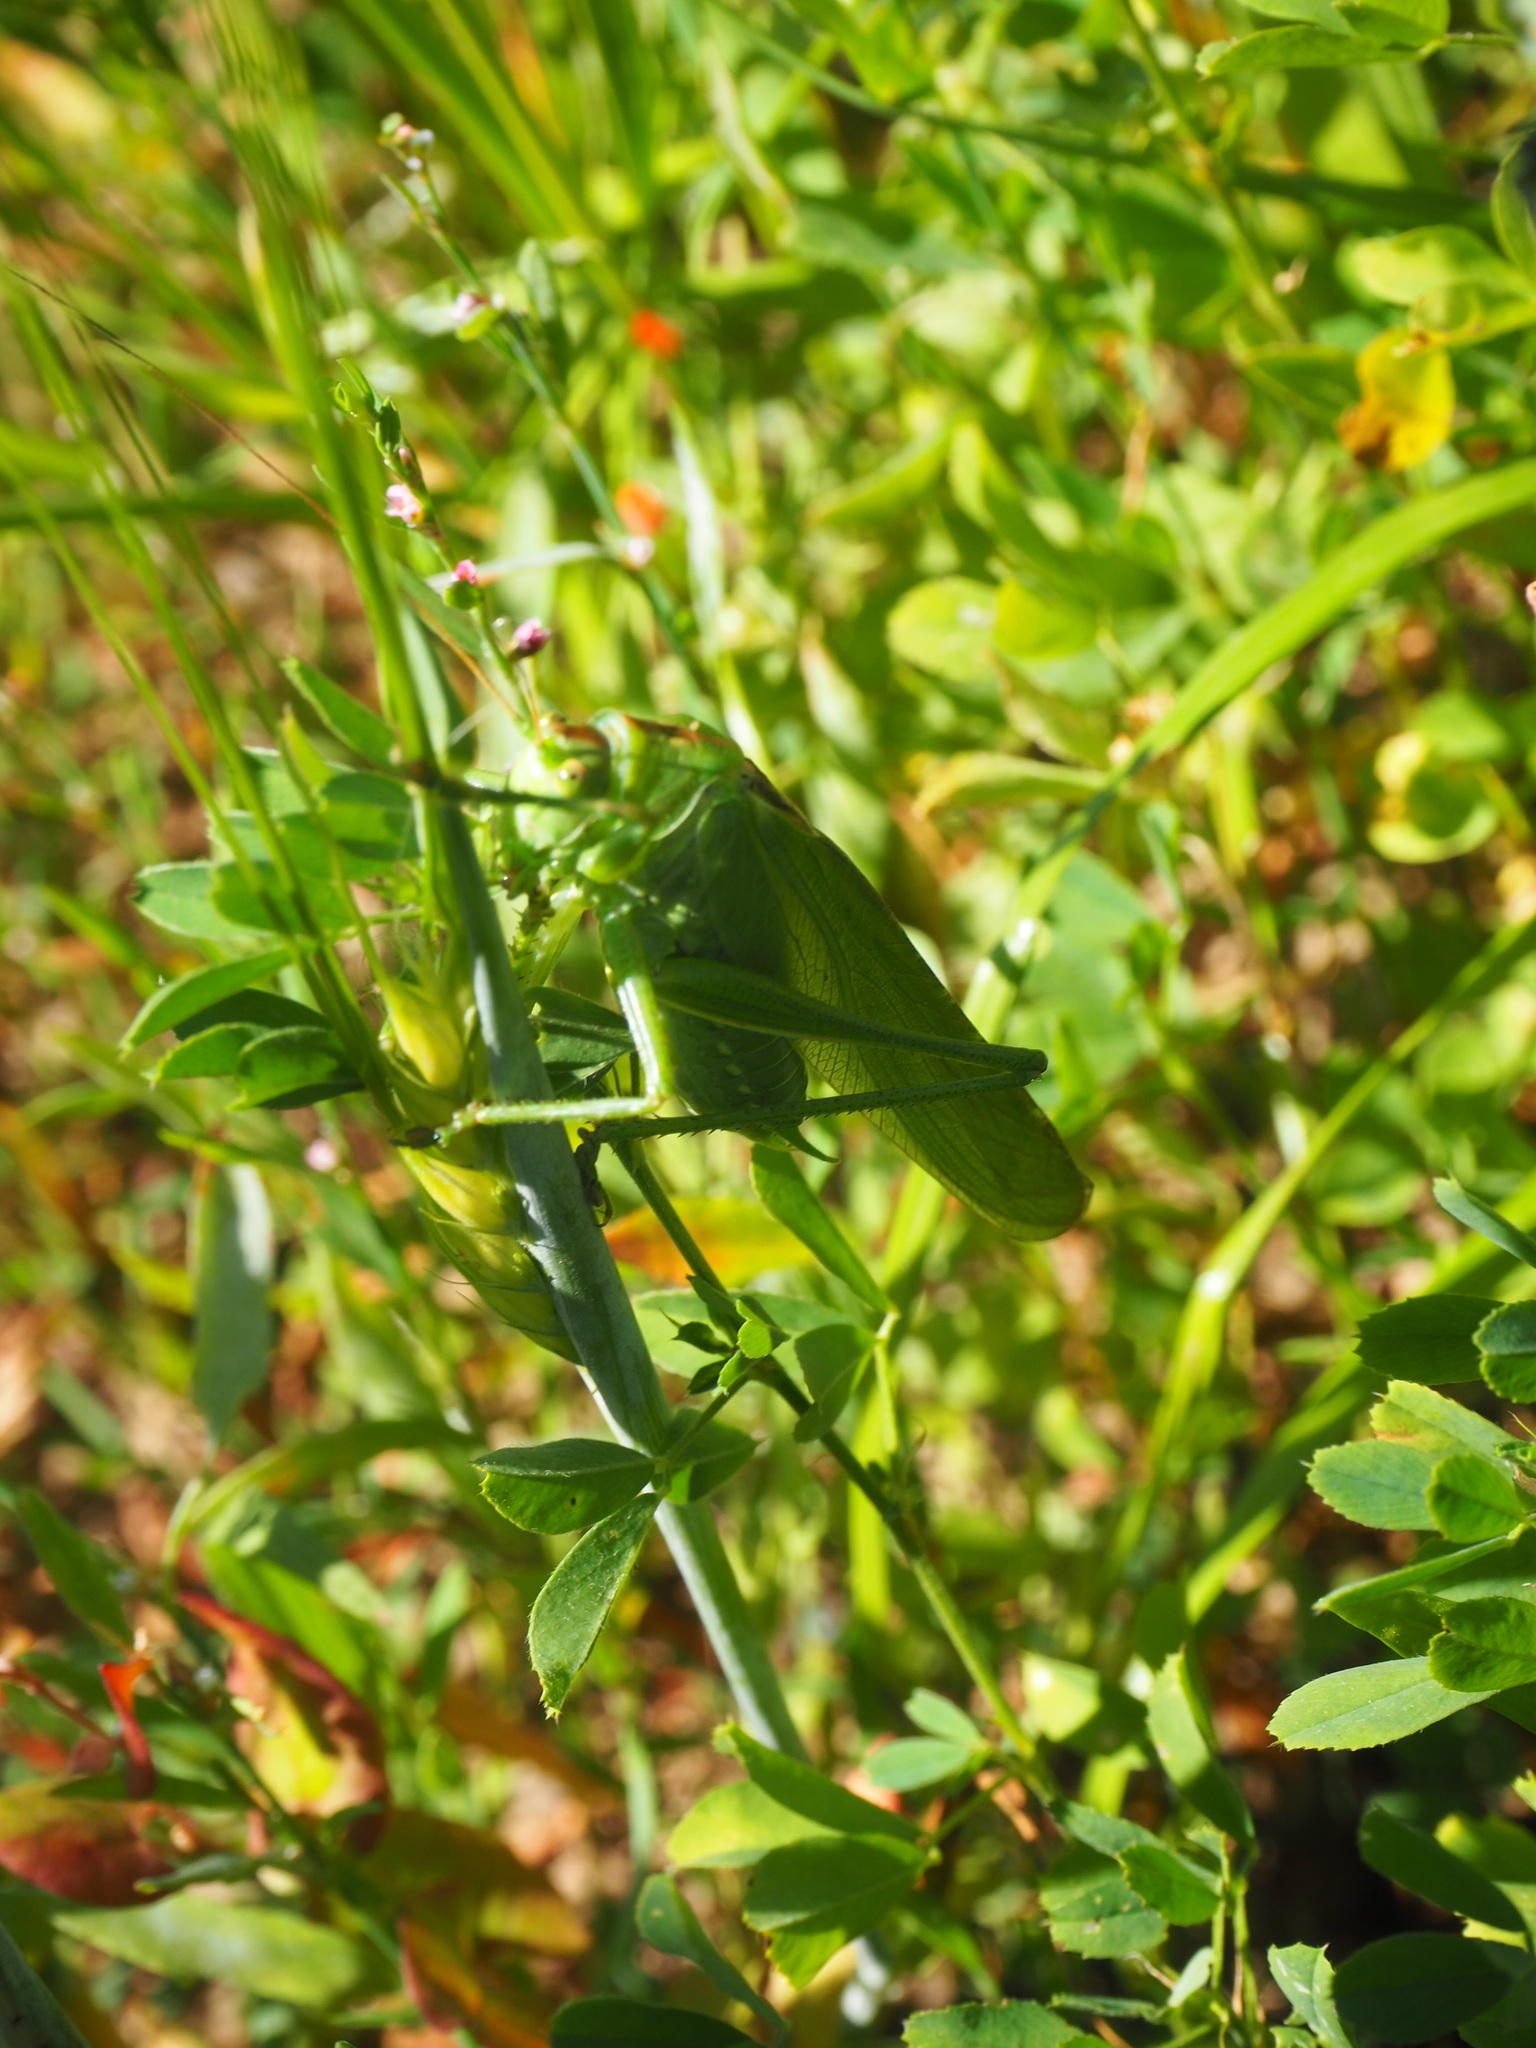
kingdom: Animalia
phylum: Arthropoda
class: Insecta
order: Orthoptera
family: Tettigoniidae
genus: Tettigonia
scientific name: Tettigonia viridissima
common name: Great green bush-cricket
